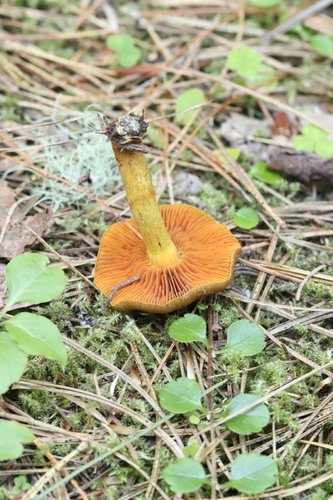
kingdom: Fungi
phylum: Basidiomycota
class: Agaricomycetes
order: Agaricales
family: Cortinariaceae
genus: Cortinarius
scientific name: Cortinarius cinnamomeus
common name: Cinnamon webcap
